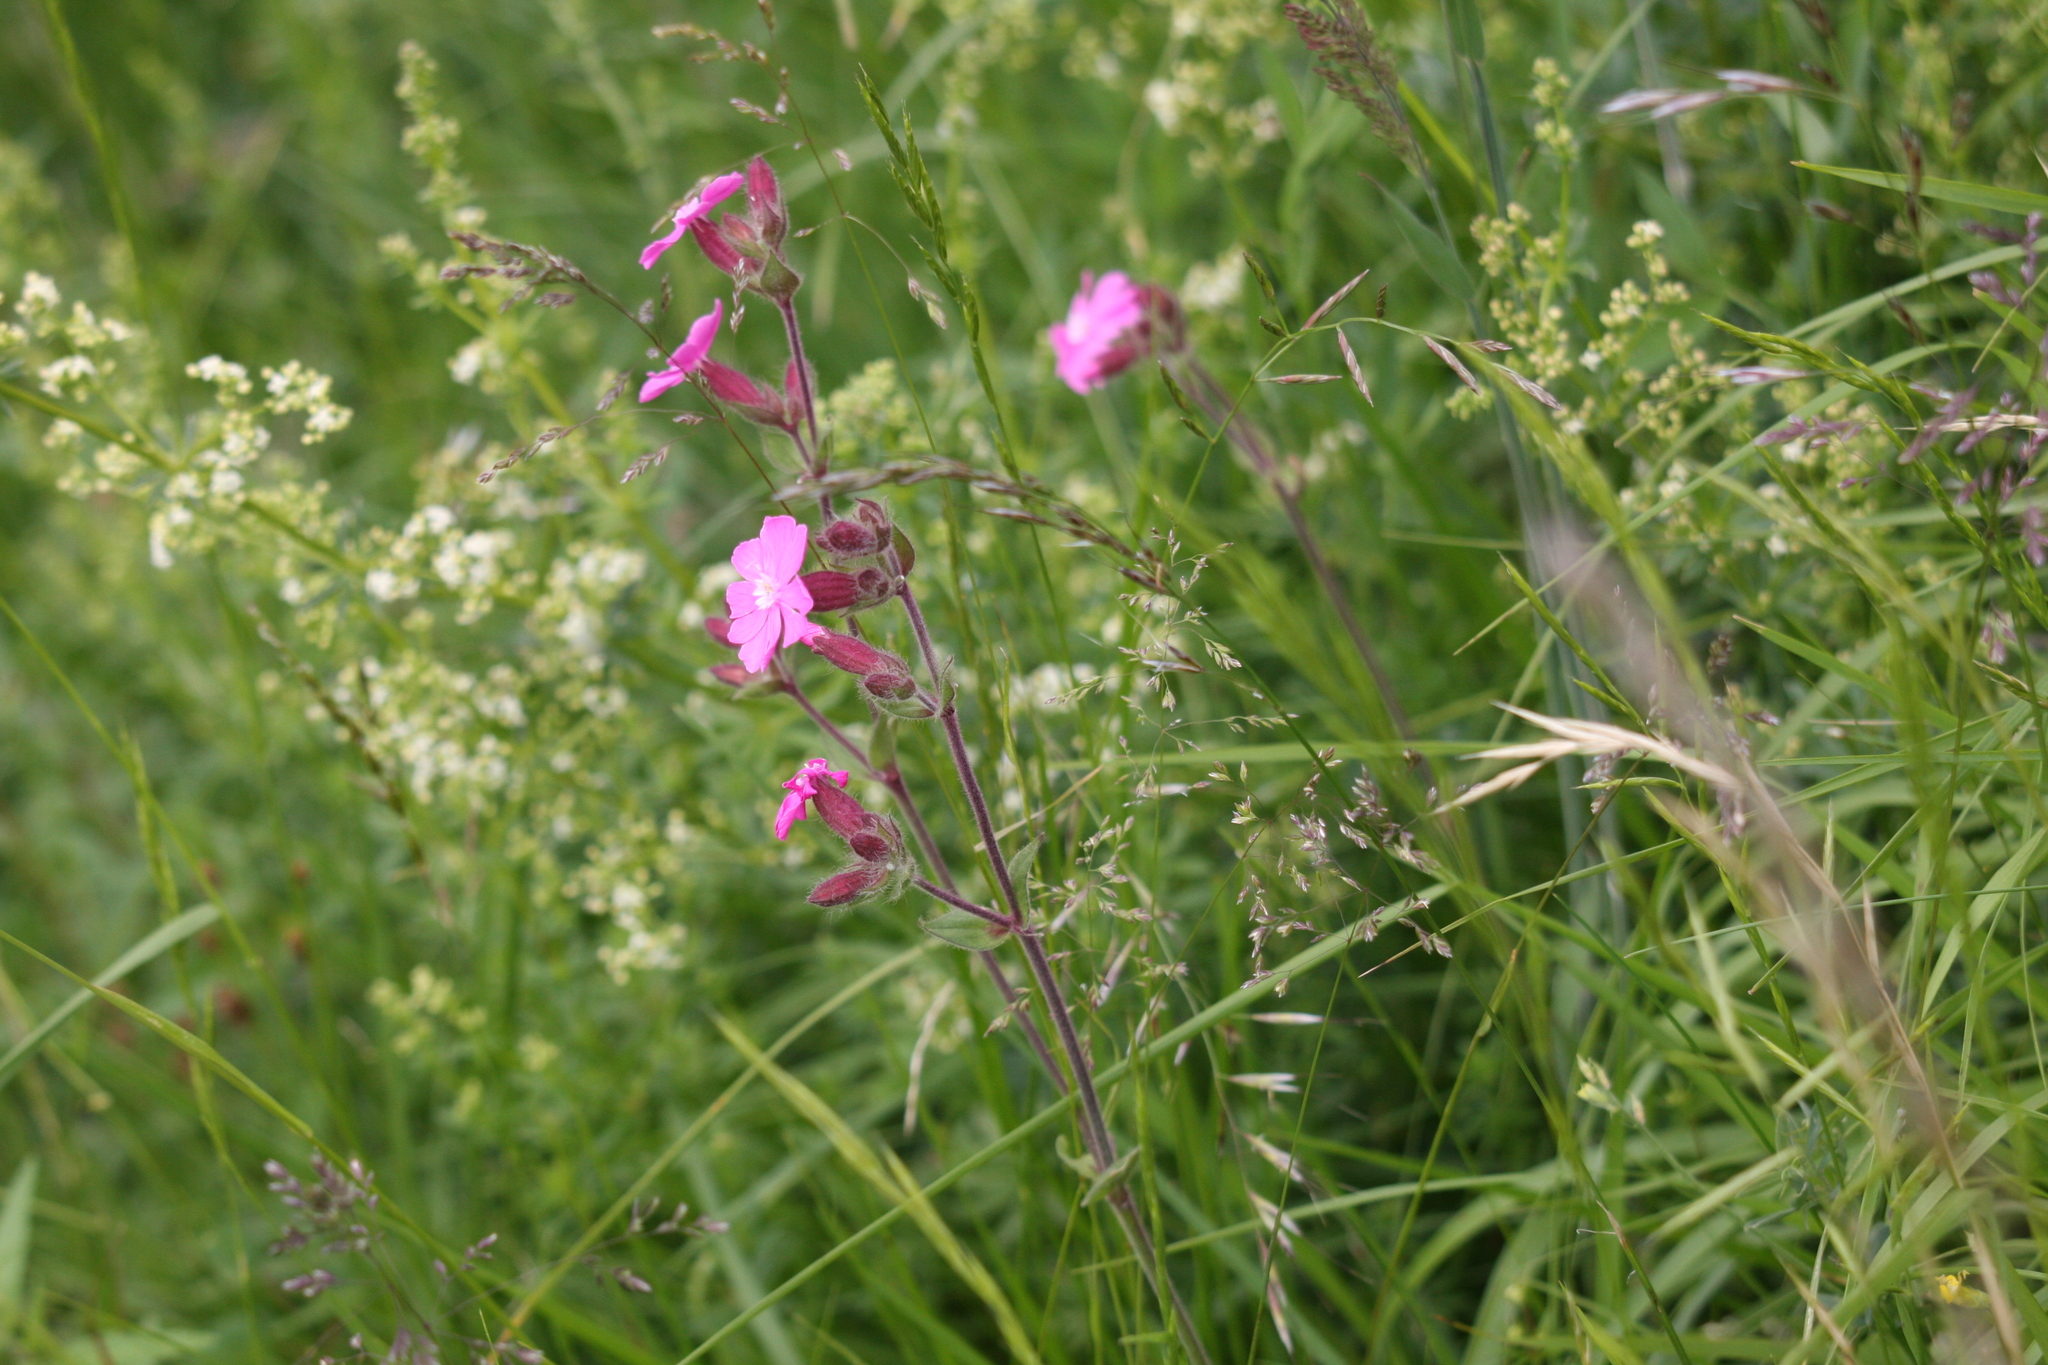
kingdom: Plantae
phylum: Tracheophyta
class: Magnoliopsida
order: Caryophyllales
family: Caryophyllaceae
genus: Silene
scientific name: Silene dioica
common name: Red campion
